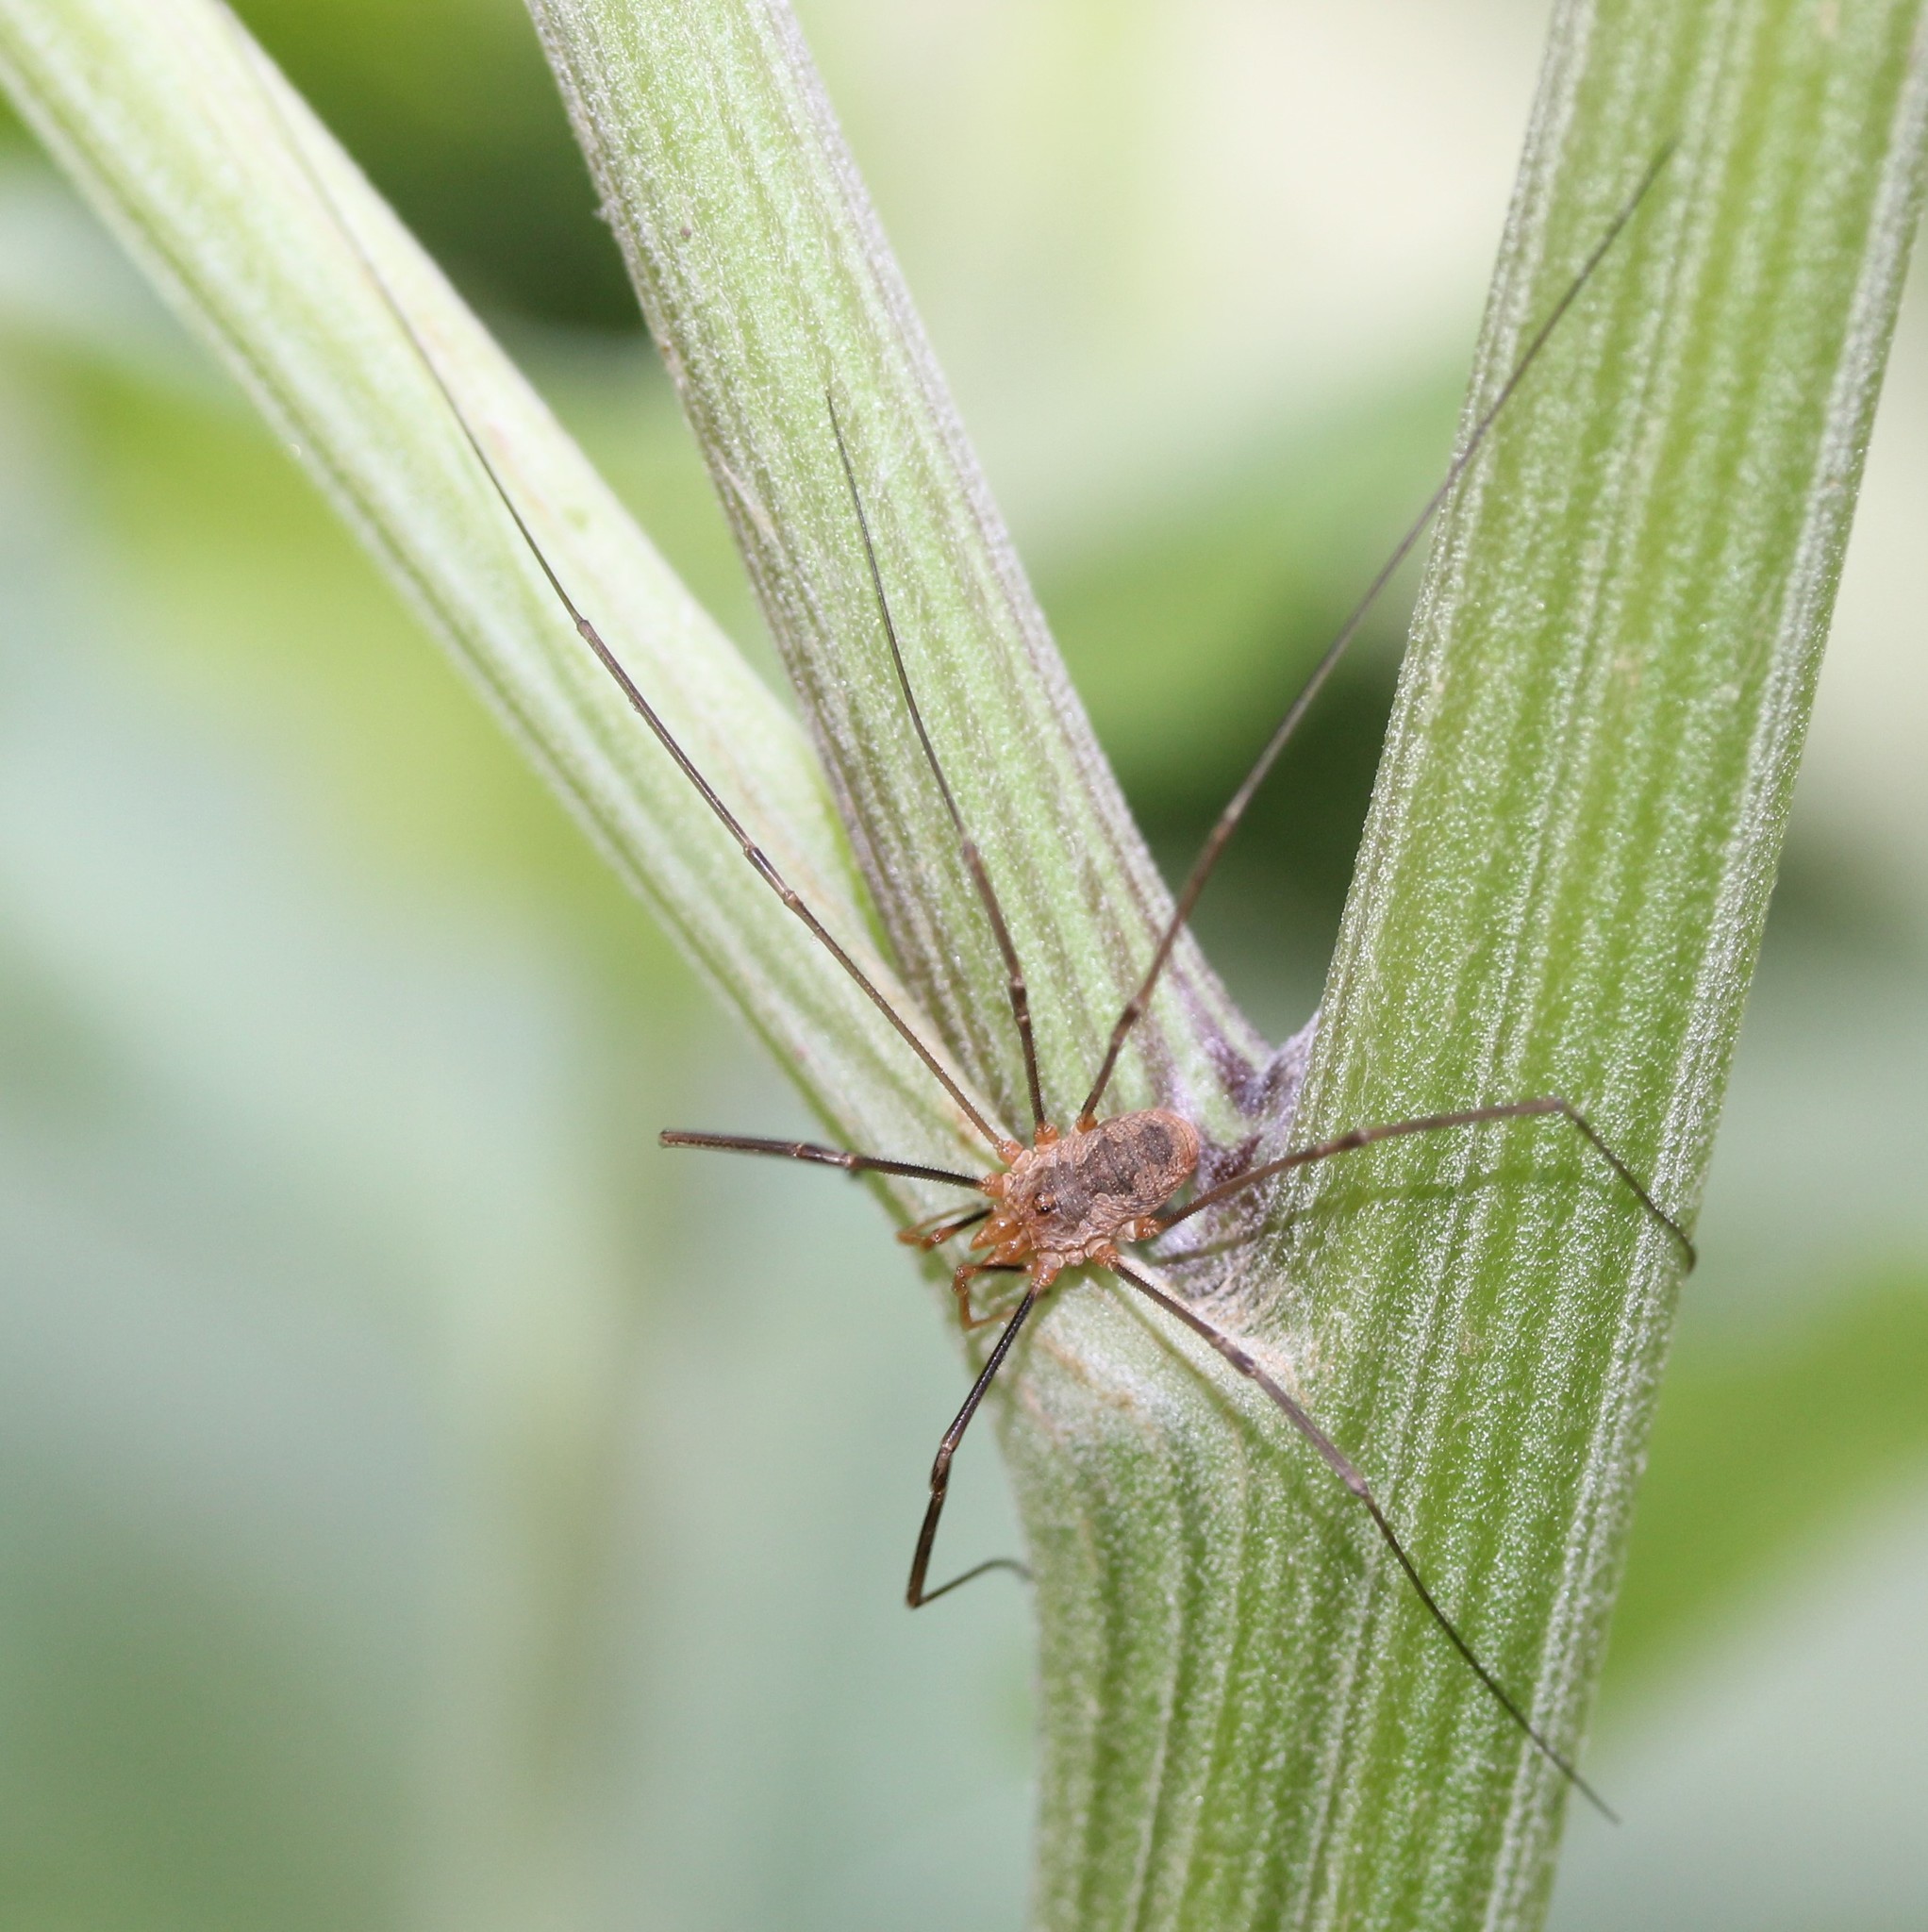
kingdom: Animalia
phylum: Arthropoda
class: Arachnida
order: Opiliones
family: Phalangiidae
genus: Phalangium
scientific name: Phalangium opilio
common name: Daddy longleg
